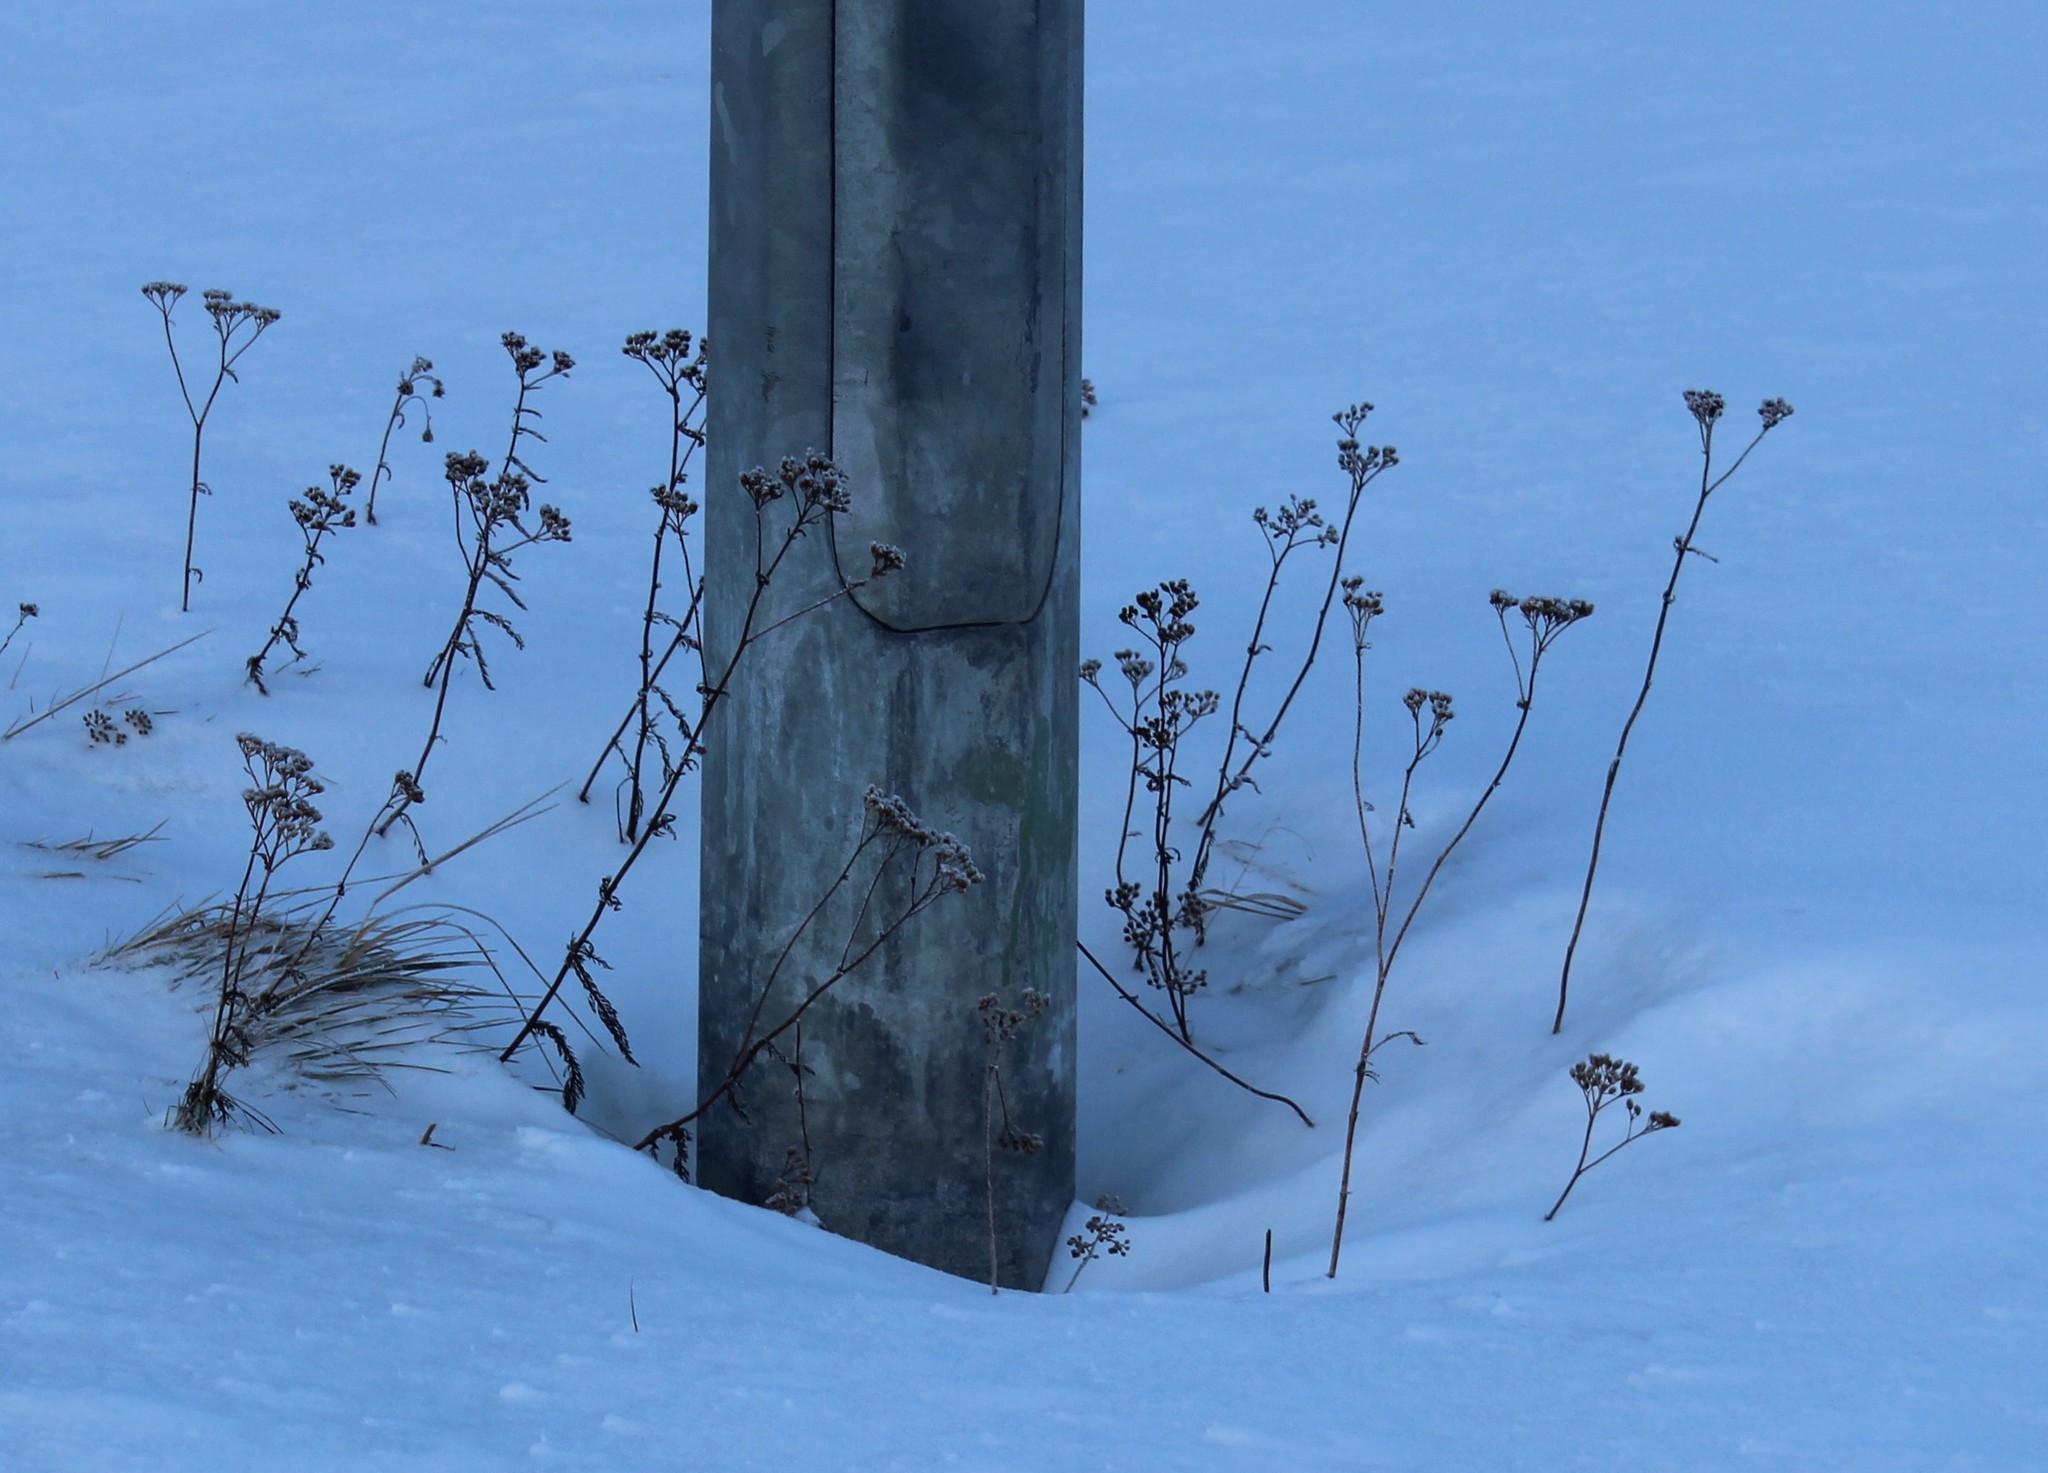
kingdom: Plantae
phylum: Tracheophyta
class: Magnoliopsida
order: Asterales
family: Asteraceae
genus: Achillea
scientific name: Achillea millefolium
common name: Yarrow
